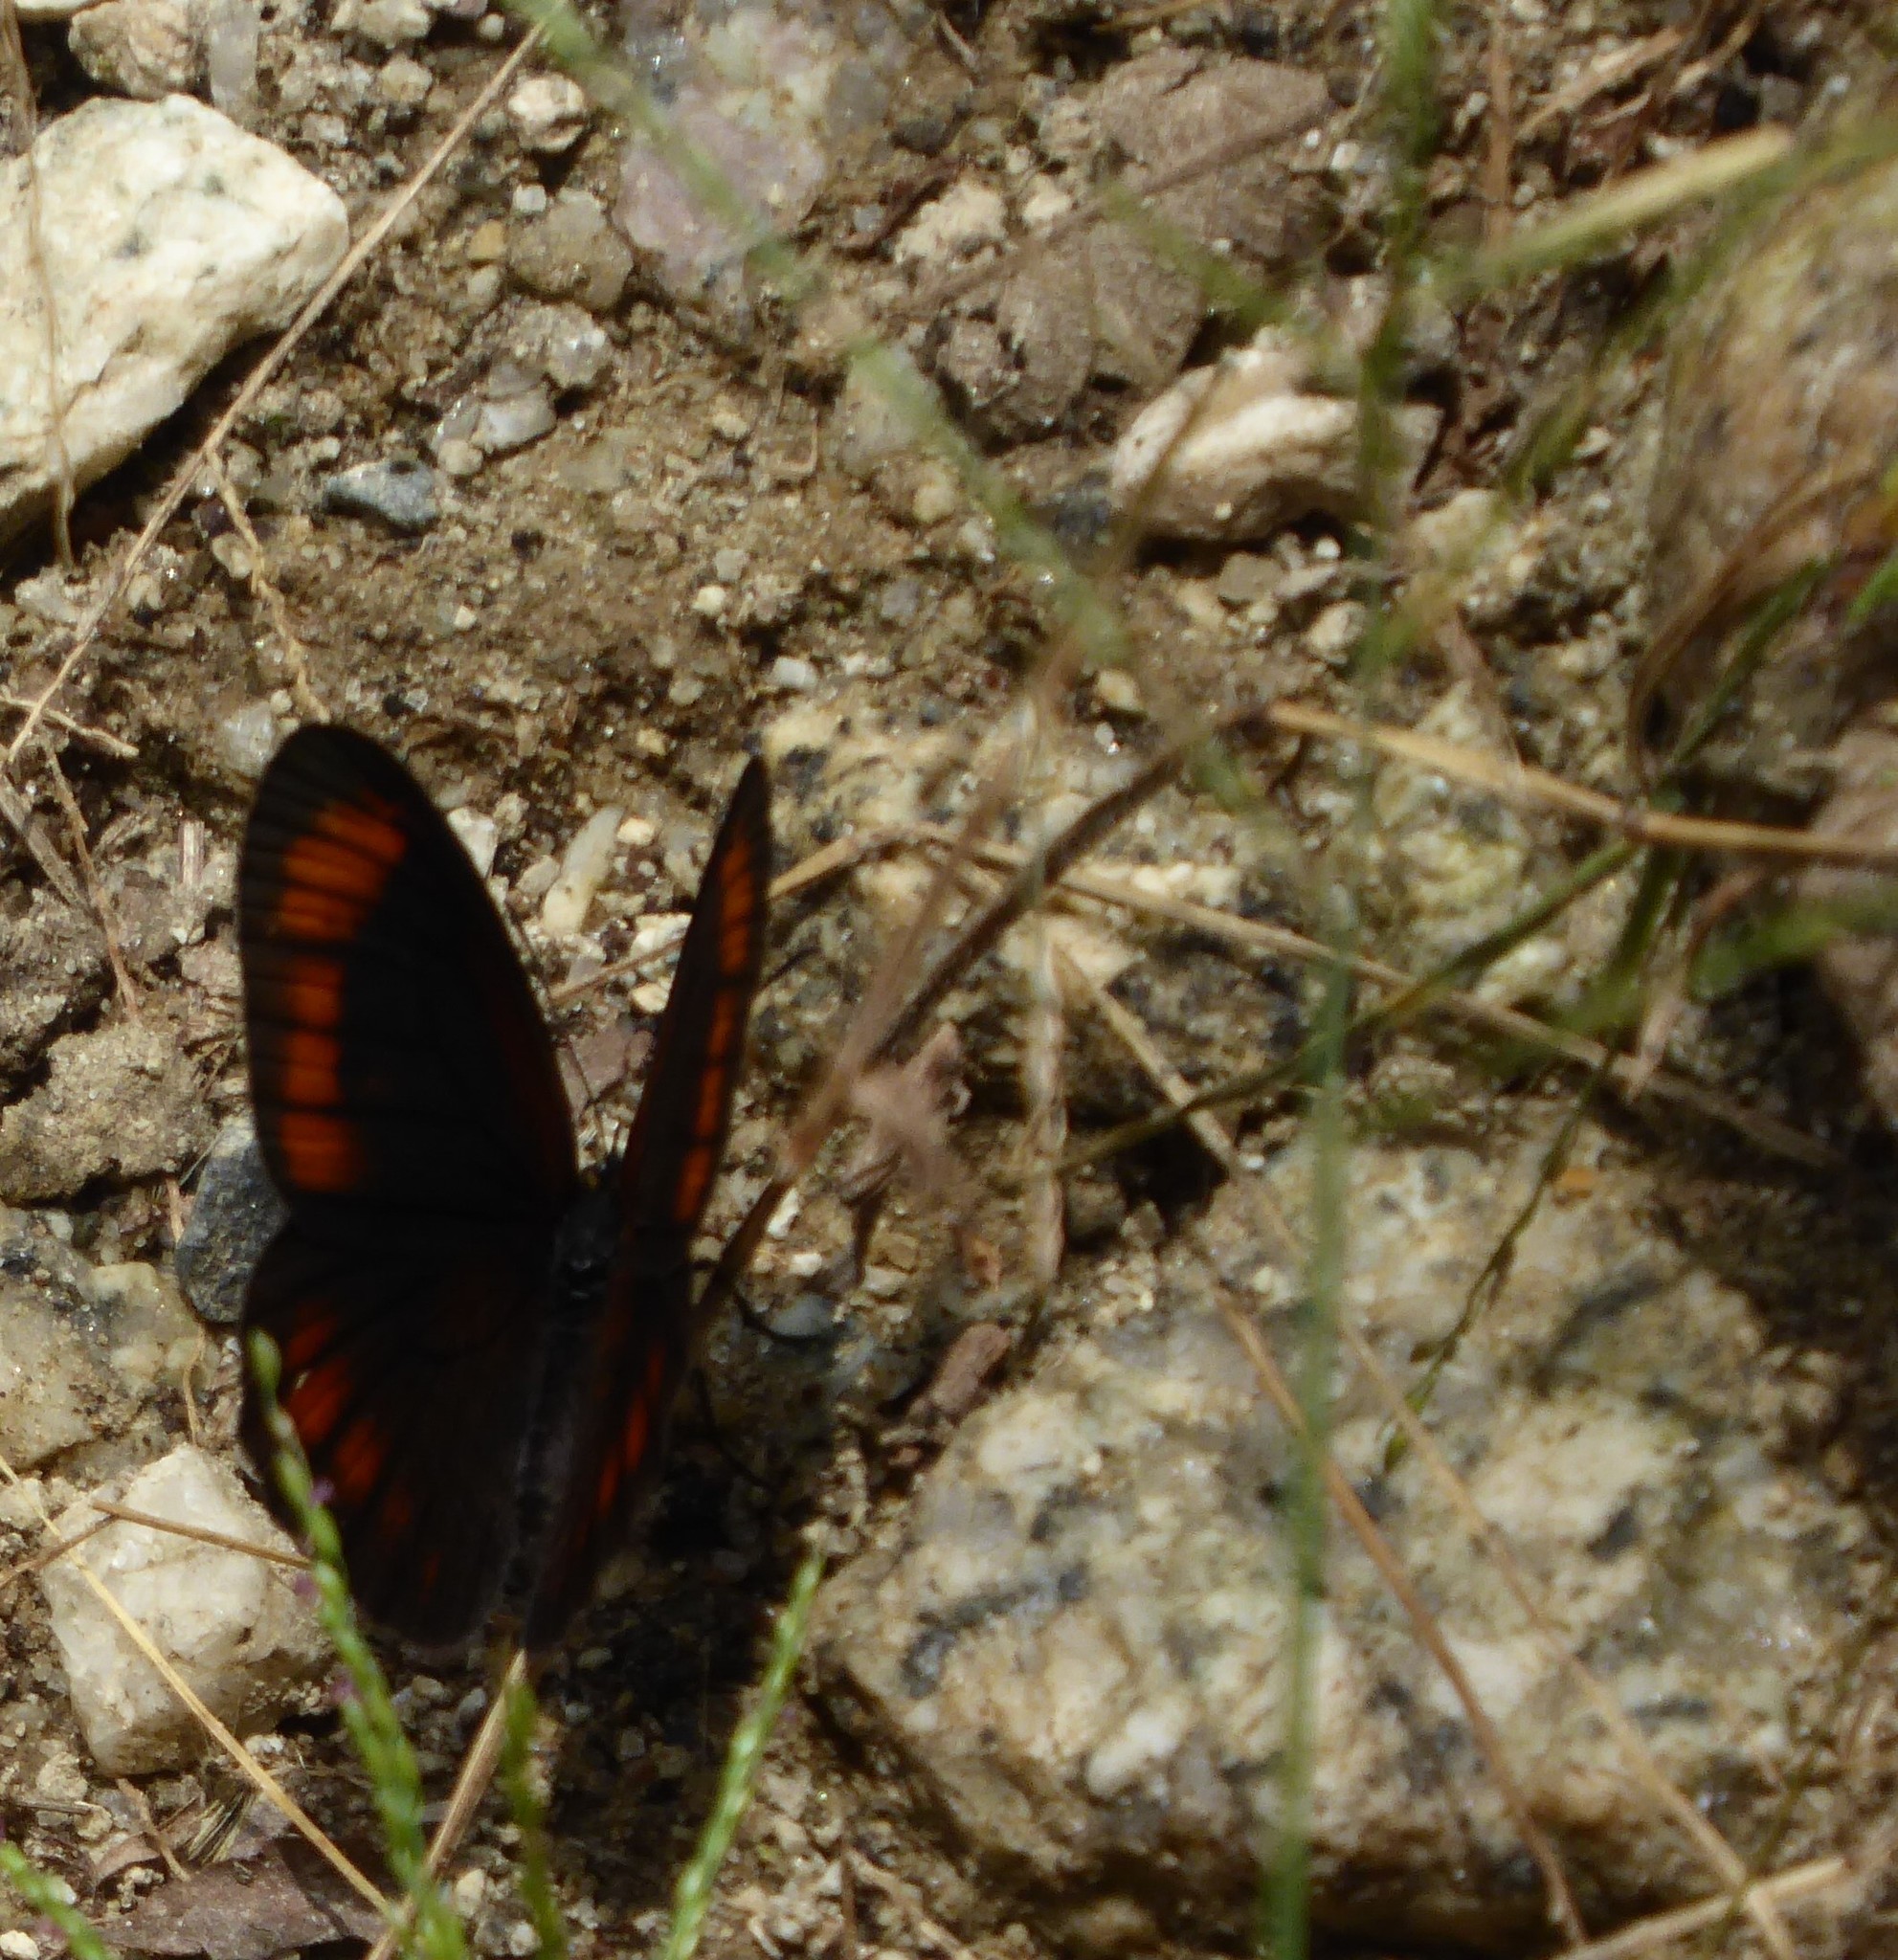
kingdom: Animalia
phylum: Arthropoda
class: Insecta
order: Lepidoptera
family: Nymphalidae
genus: Lymanopoda
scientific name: Lymanopoda acraeida
